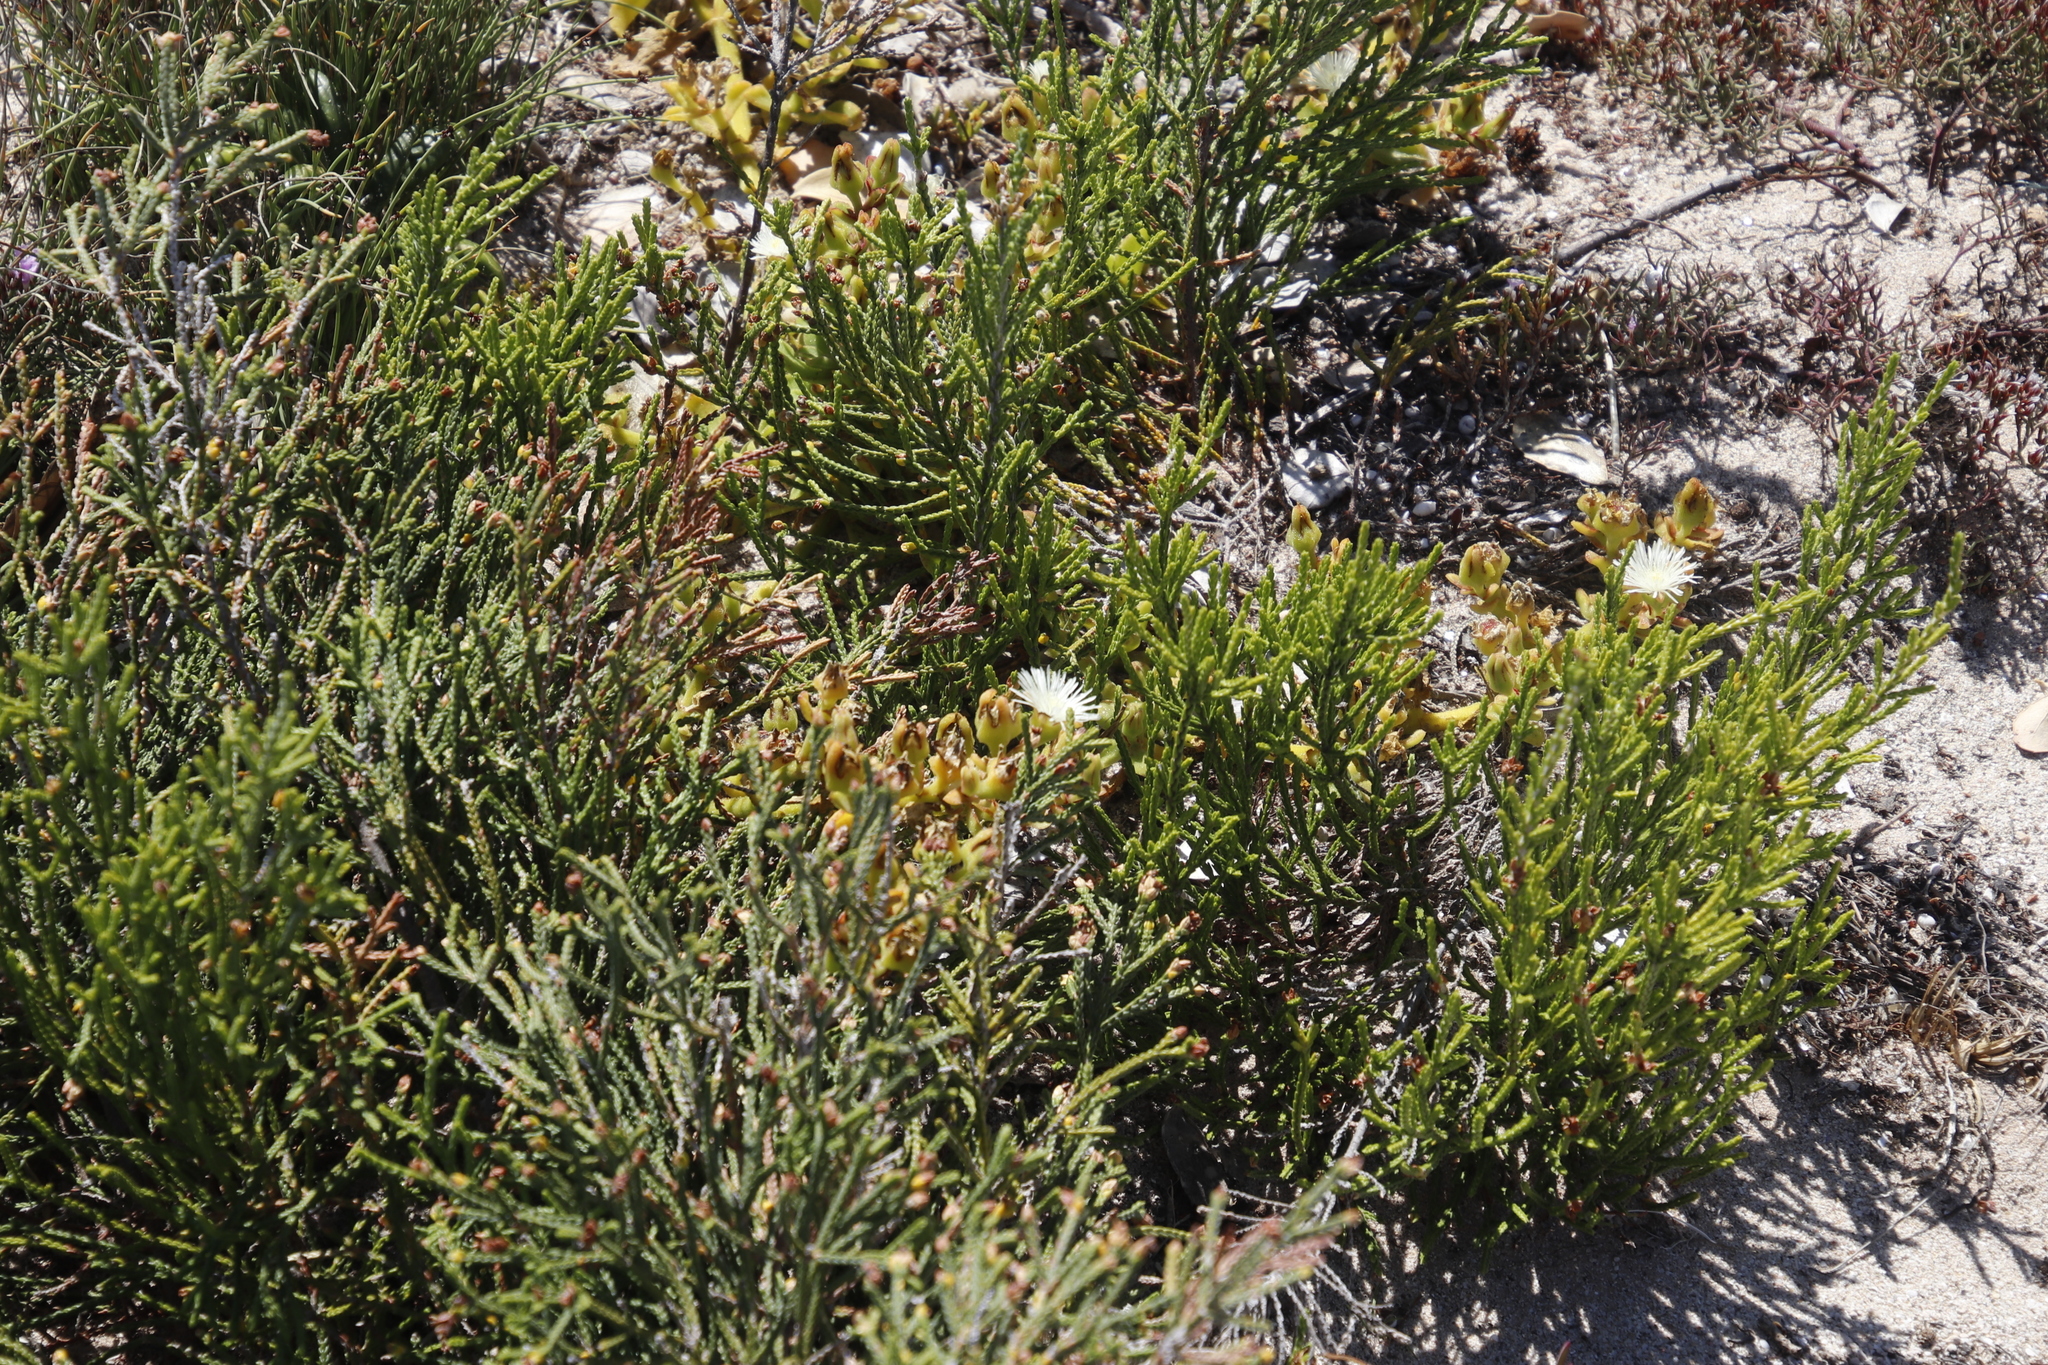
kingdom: Plantae
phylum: Tracheophyta
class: Magnoliopsida
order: Caryophyllales
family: Aizoaceae
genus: Mesembryanthemum
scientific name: Mesembryanthemum aitonis
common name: Angled iceplant
